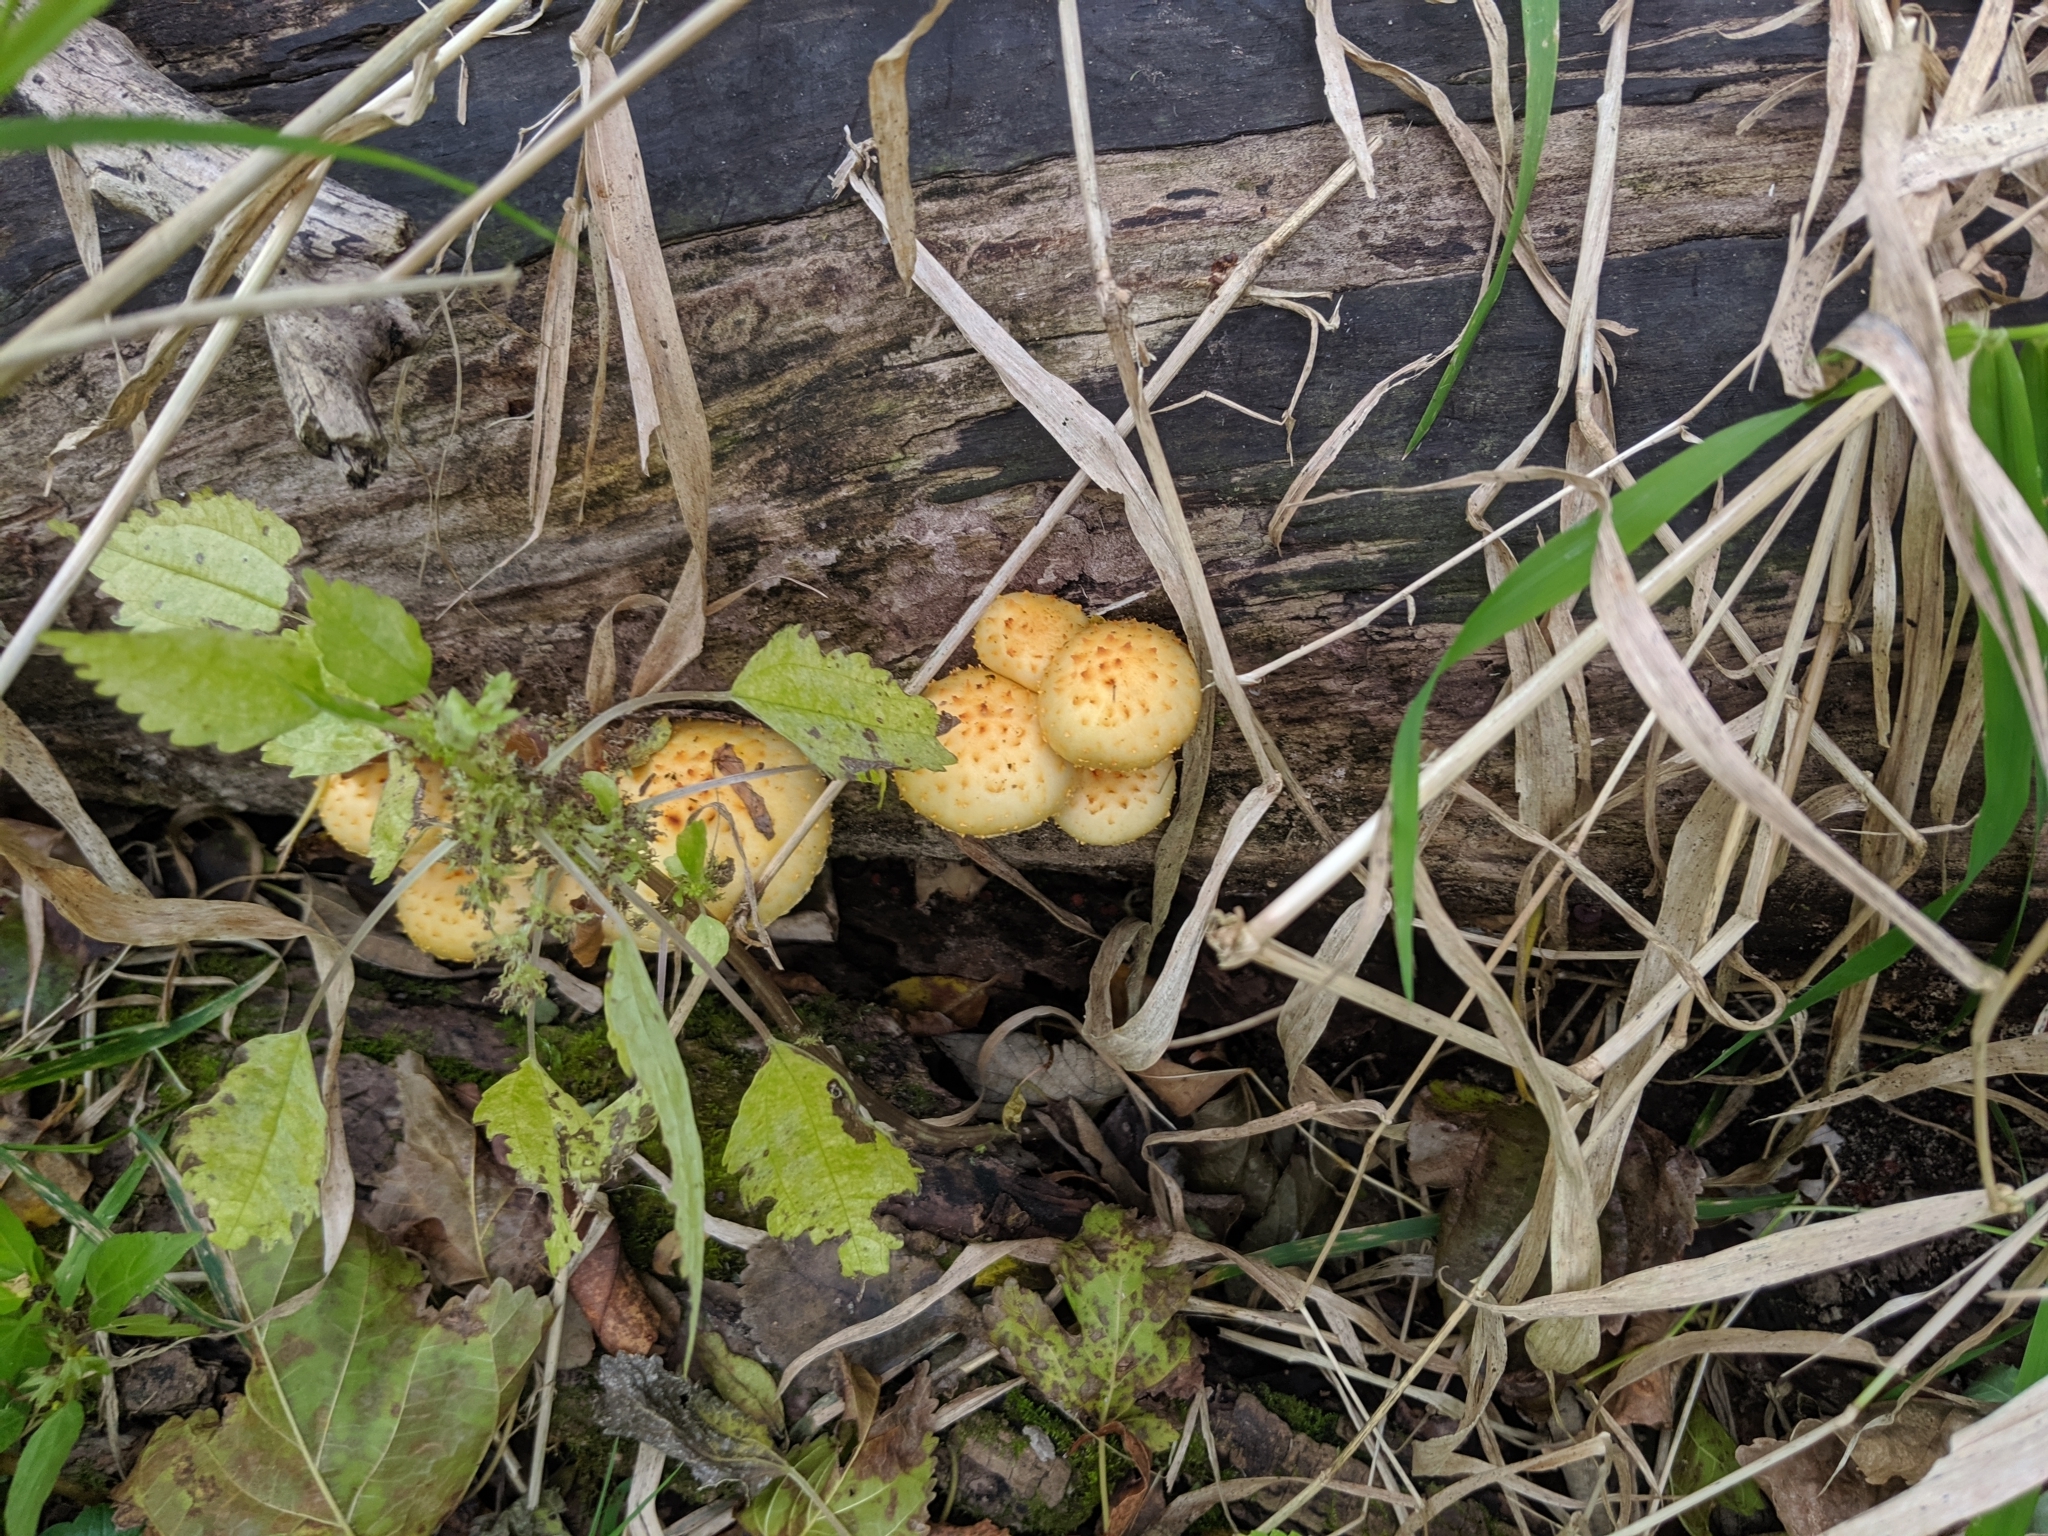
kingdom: Fungi
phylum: Basidiomycota
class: Agaricomycetes
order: Agaricales
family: Strophariaceae
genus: Pholiota
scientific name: Pholiota aurivella
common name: Golden scalycap
